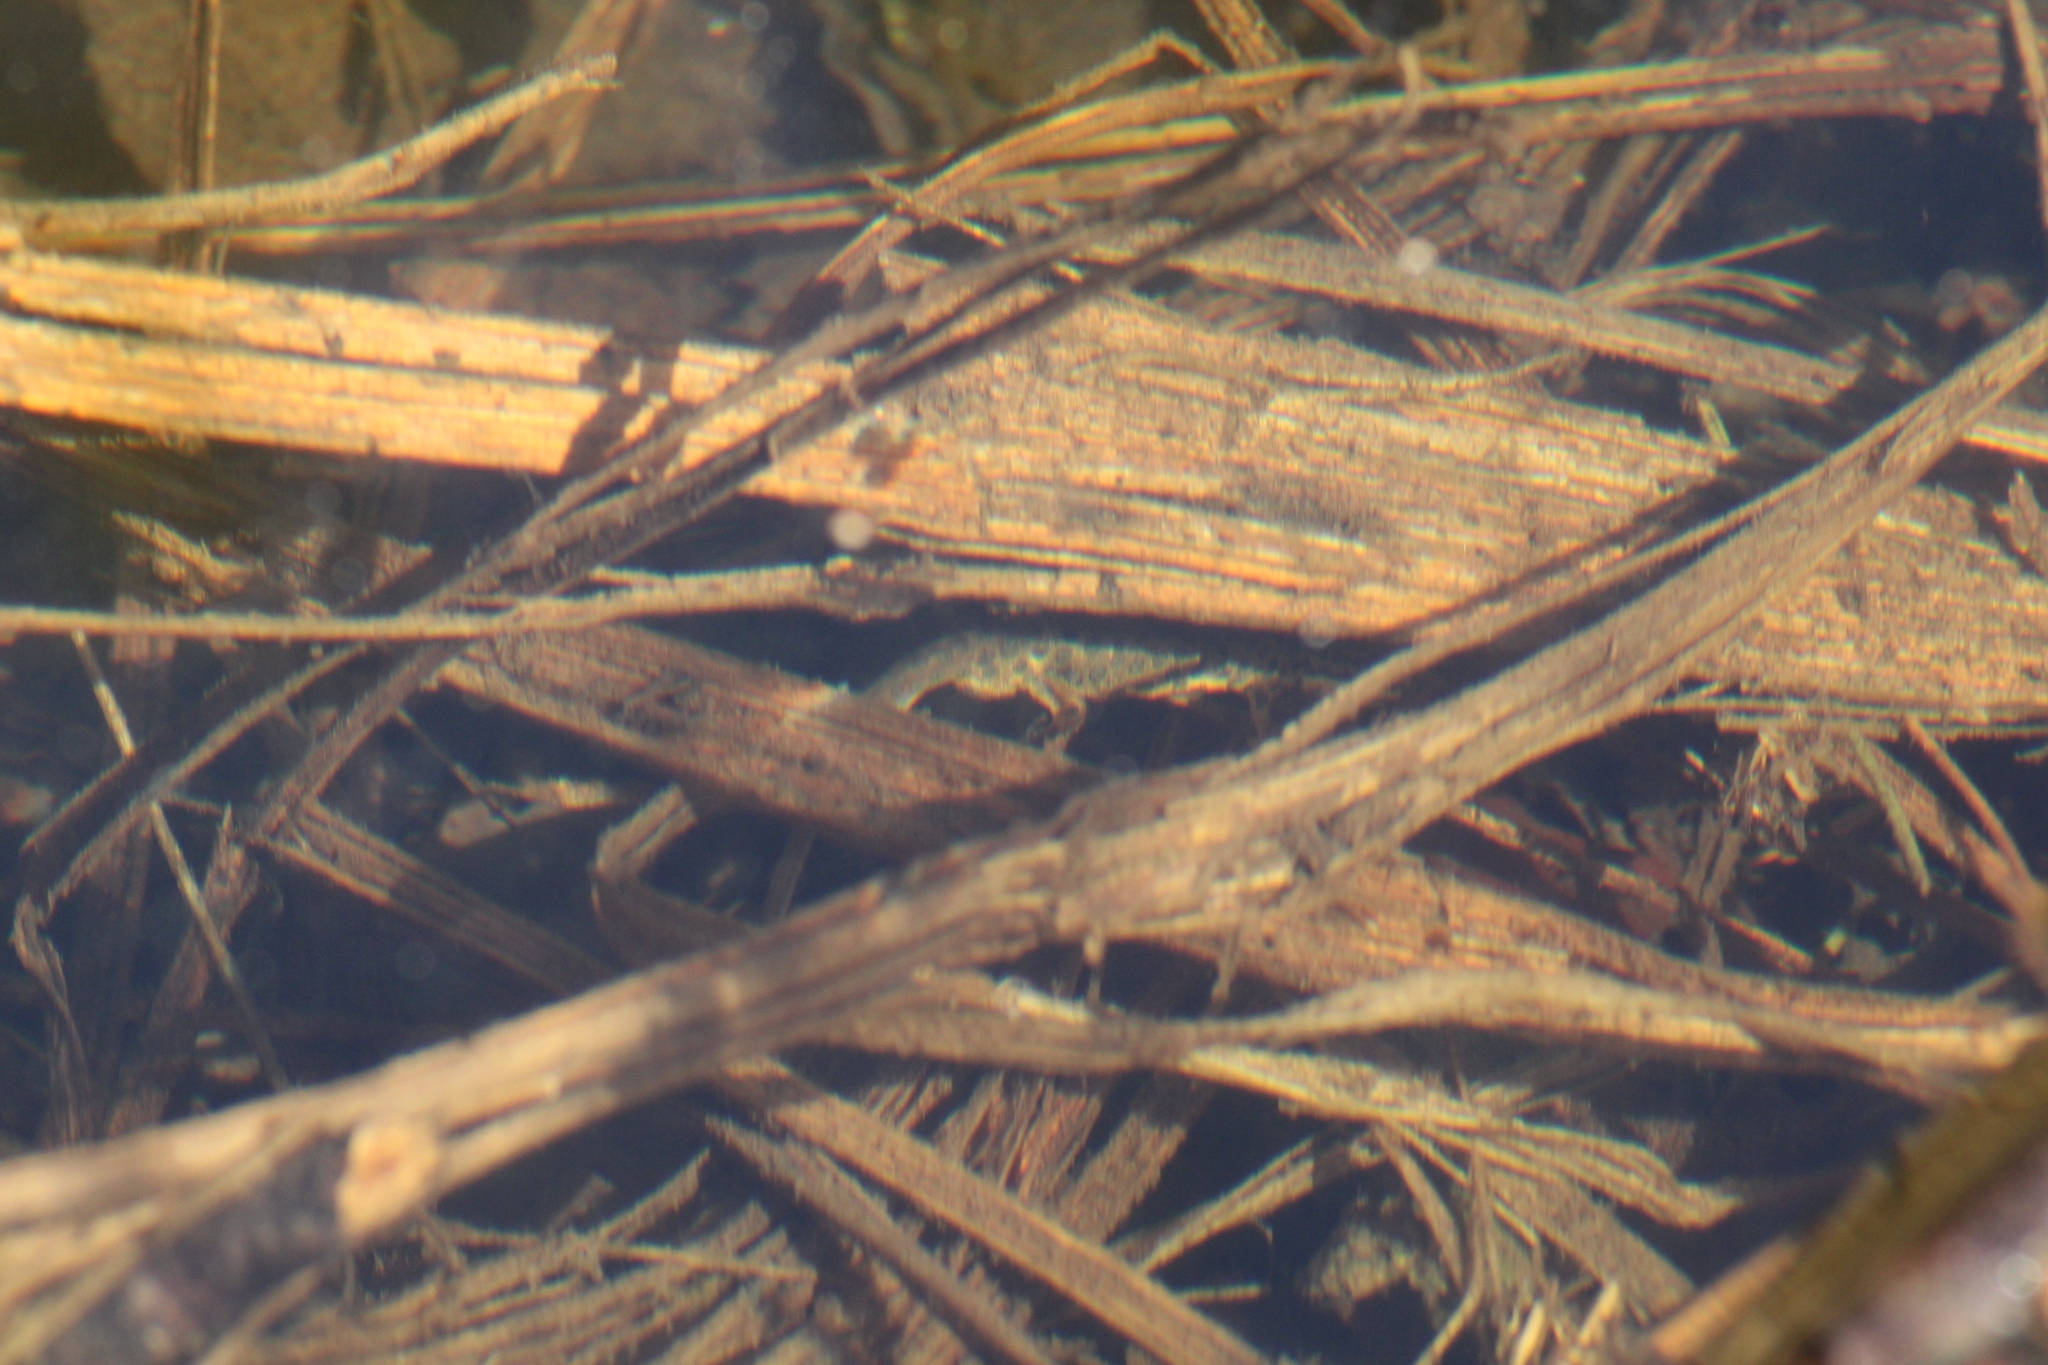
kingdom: Animalia
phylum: Chordata
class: Amphibia
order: Caudata
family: Salamandridae
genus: Lissotriton
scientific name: Lissotriton graecus
